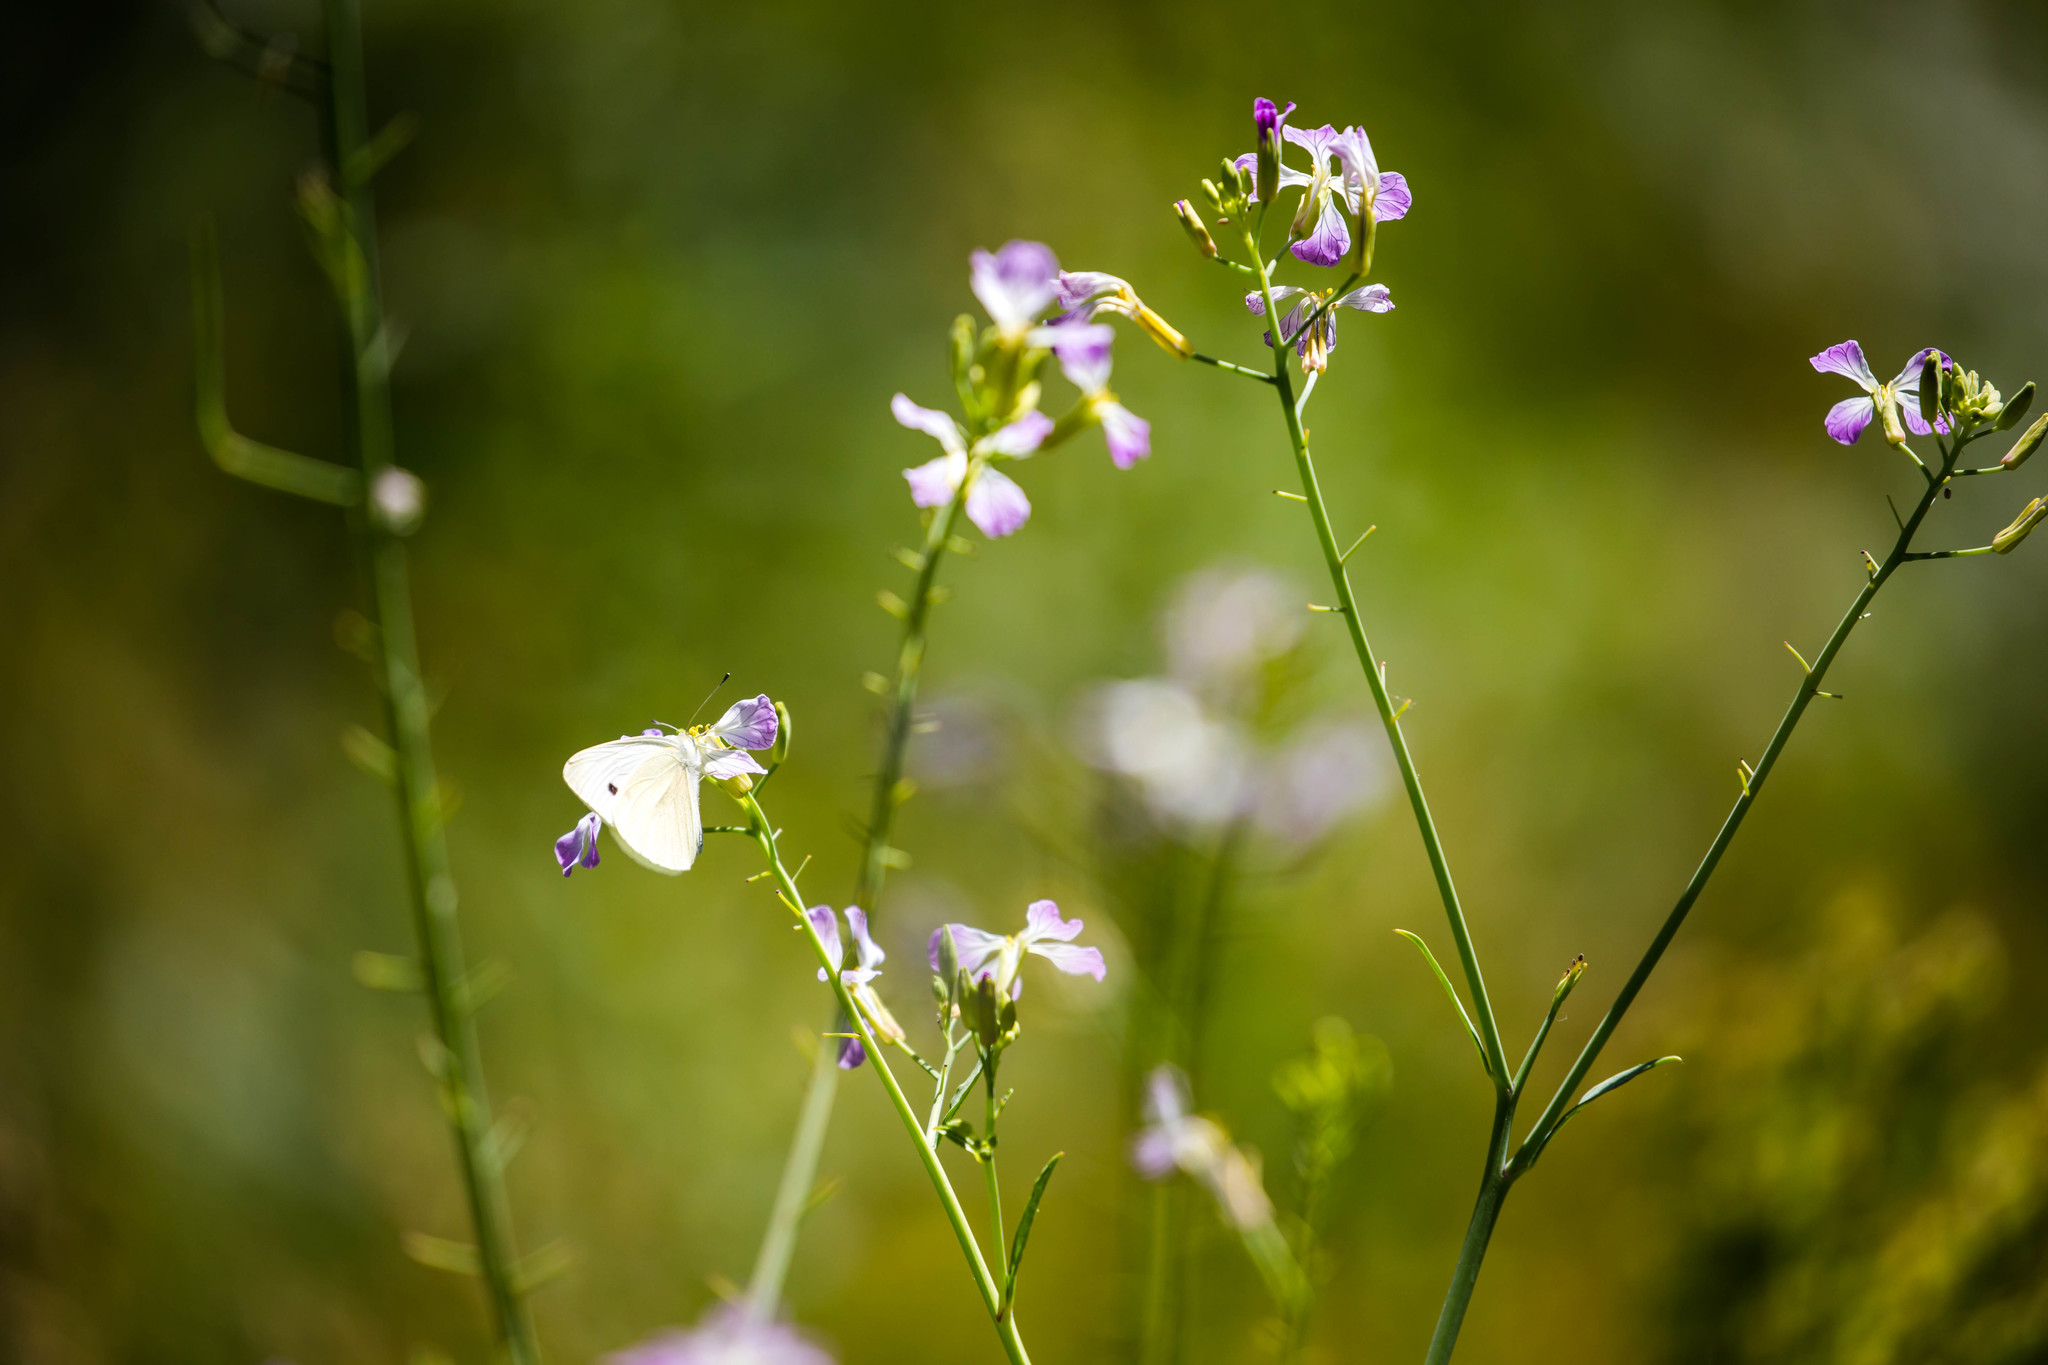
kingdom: Animalia
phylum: Arthropoda
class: Insecta
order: Lepidoptera
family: Pieridae
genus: Pieris
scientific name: Pieris rapae
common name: Small white
